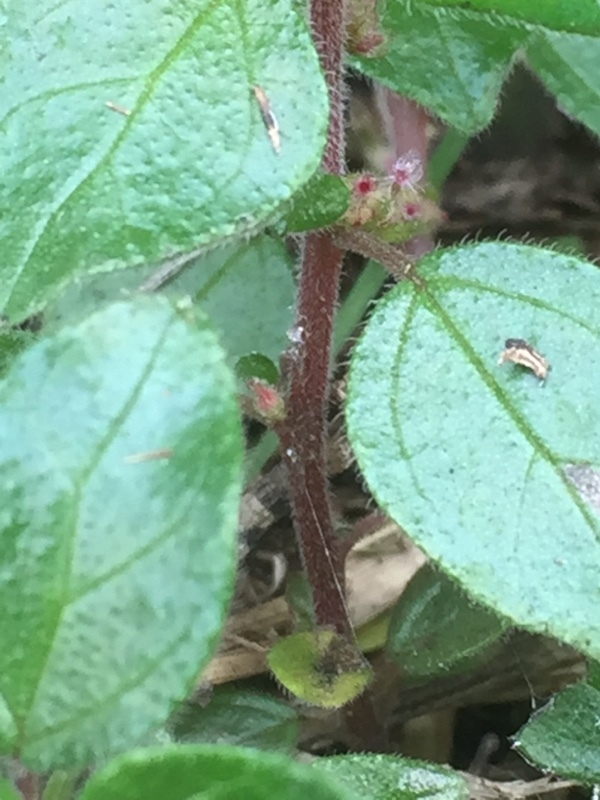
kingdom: Plantae
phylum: Tracheophyta
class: Magnoliopsida
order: Rosales
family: Urticaceae
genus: Parietaria
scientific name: Parietaria judaica
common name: Pellitory-of-the-wall
